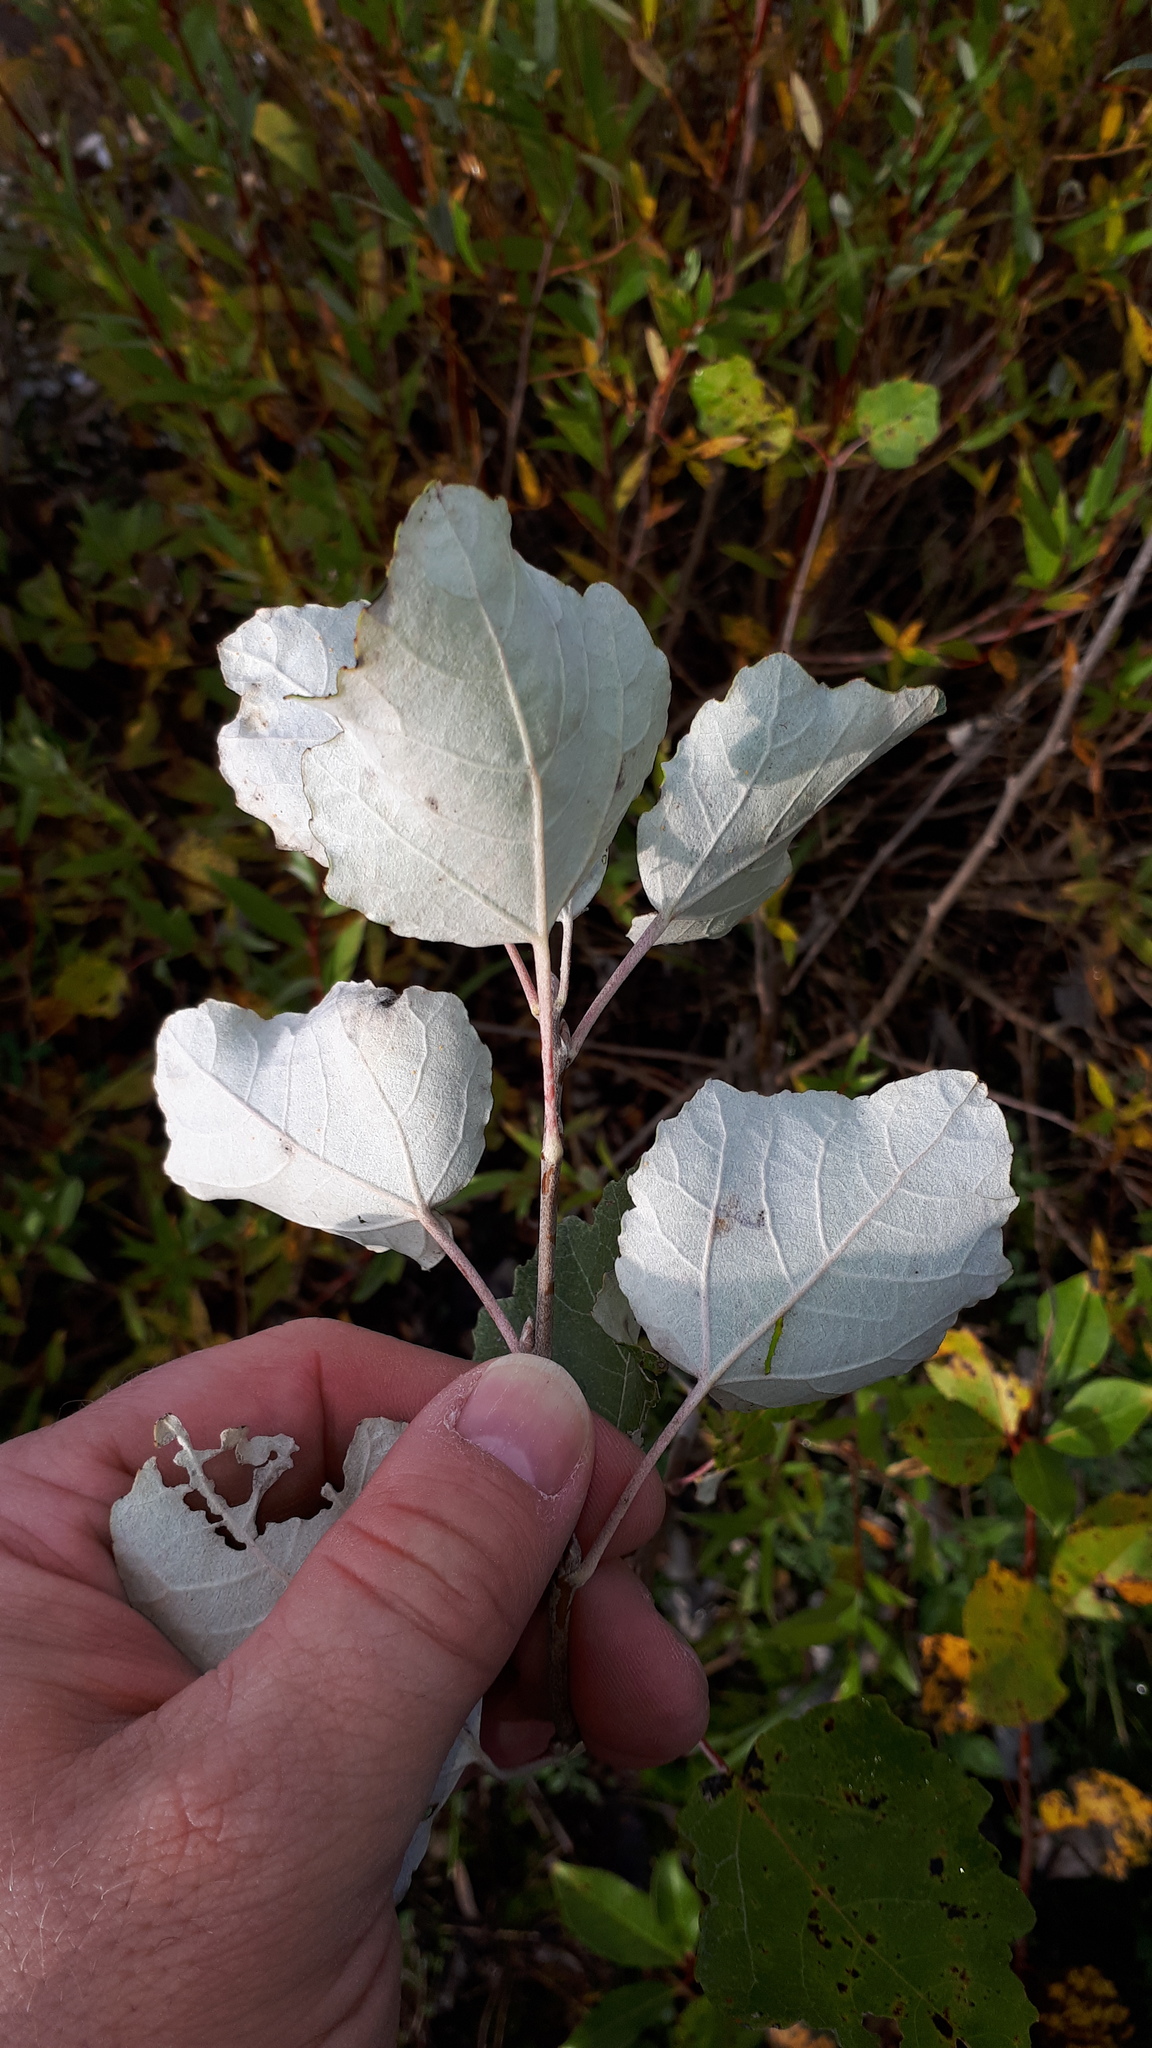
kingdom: Plantae
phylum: Tracheophyta
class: Magnoliopsida
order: Malpighiales
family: Salicaceae
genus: Populus
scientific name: Populus alba
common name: White poplar
